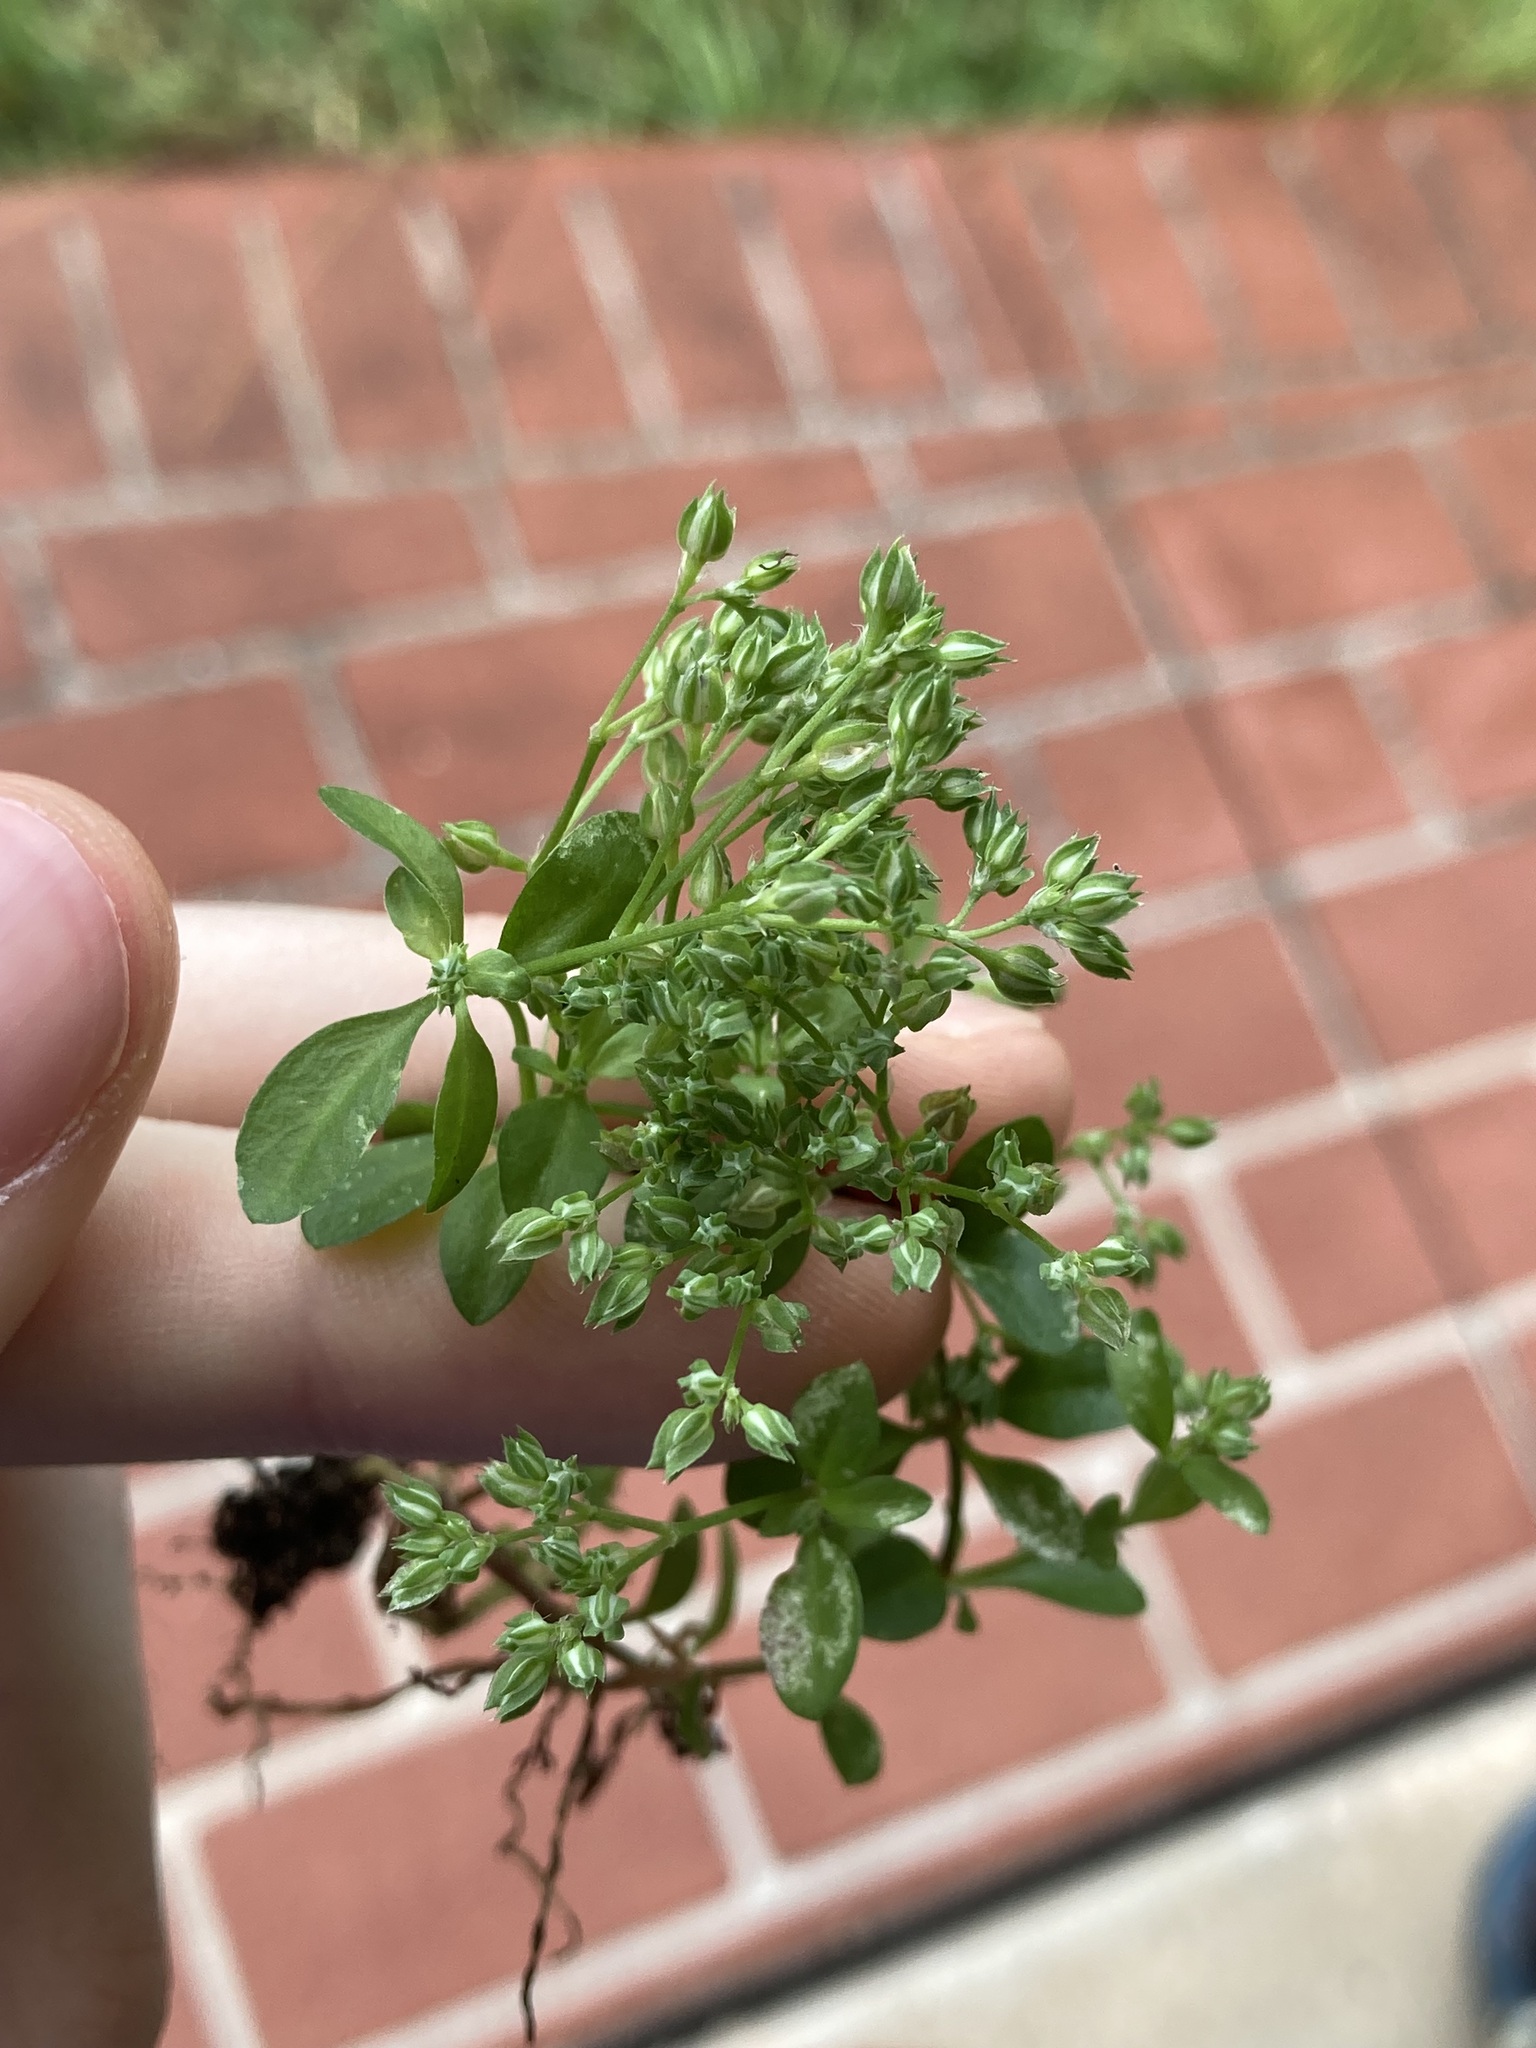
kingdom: Plantae
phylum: Tracheophyta
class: Magnoliopsida
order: Caryophyllales
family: Caryophyllaceae
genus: Polycarpon
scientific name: Polycarpon tetraphyllum
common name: Four-leaved all-seed
